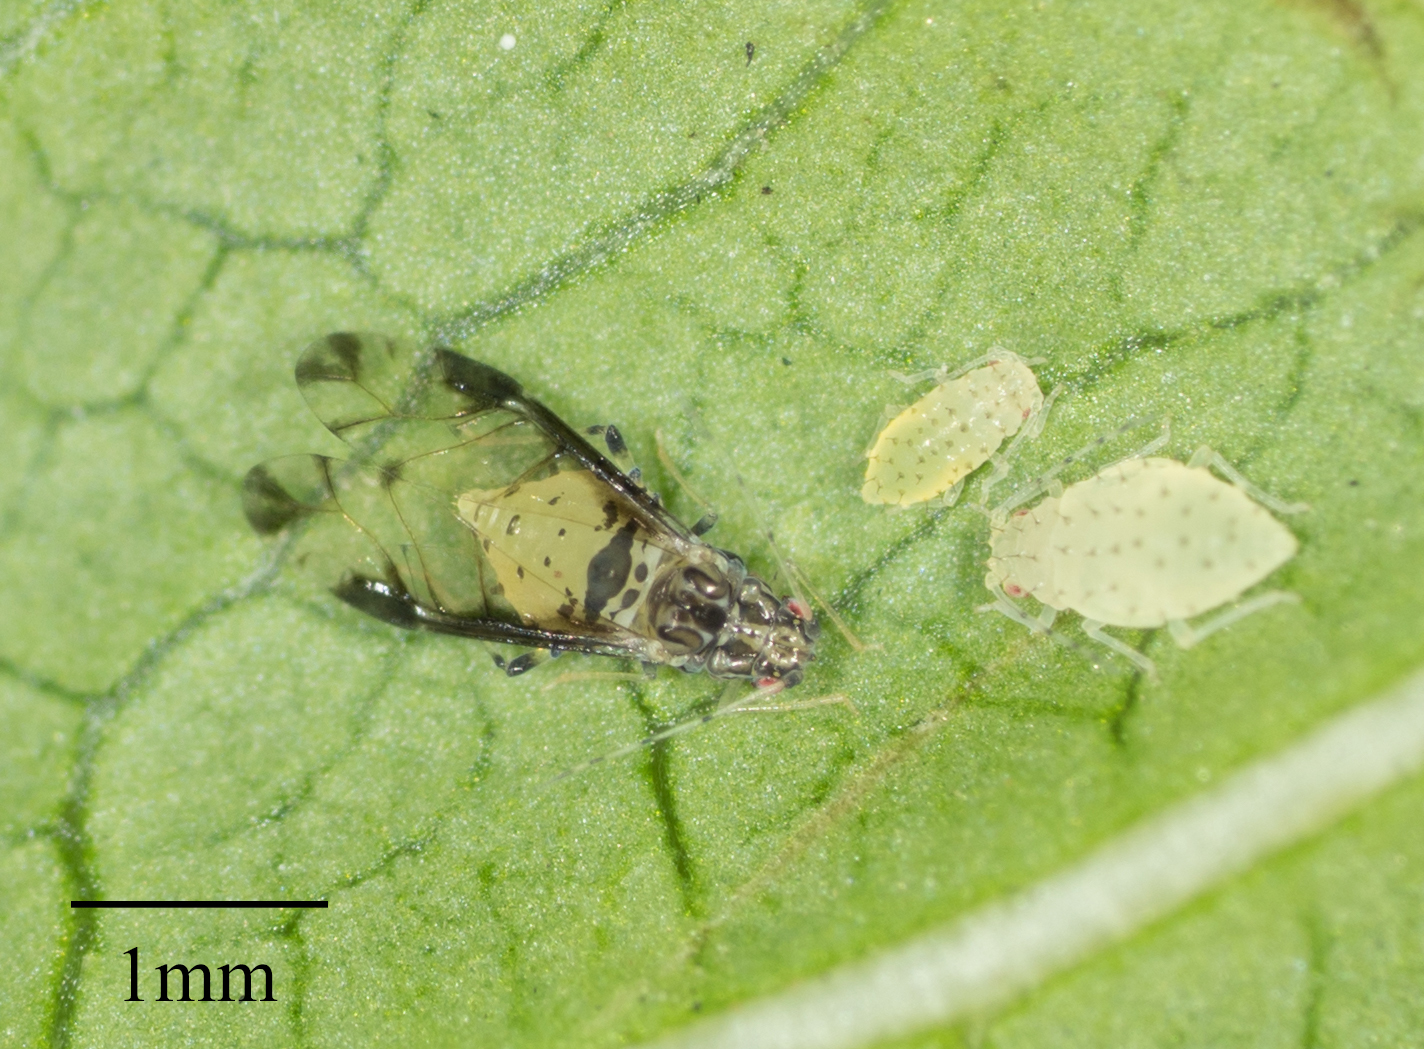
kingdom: Animalia
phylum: Arthropoda
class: Insecta
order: Hemiptera
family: Aphididae
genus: Sarucallis
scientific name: Sarucallis kahawaluokalani
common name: Crapemyrtle aphid
